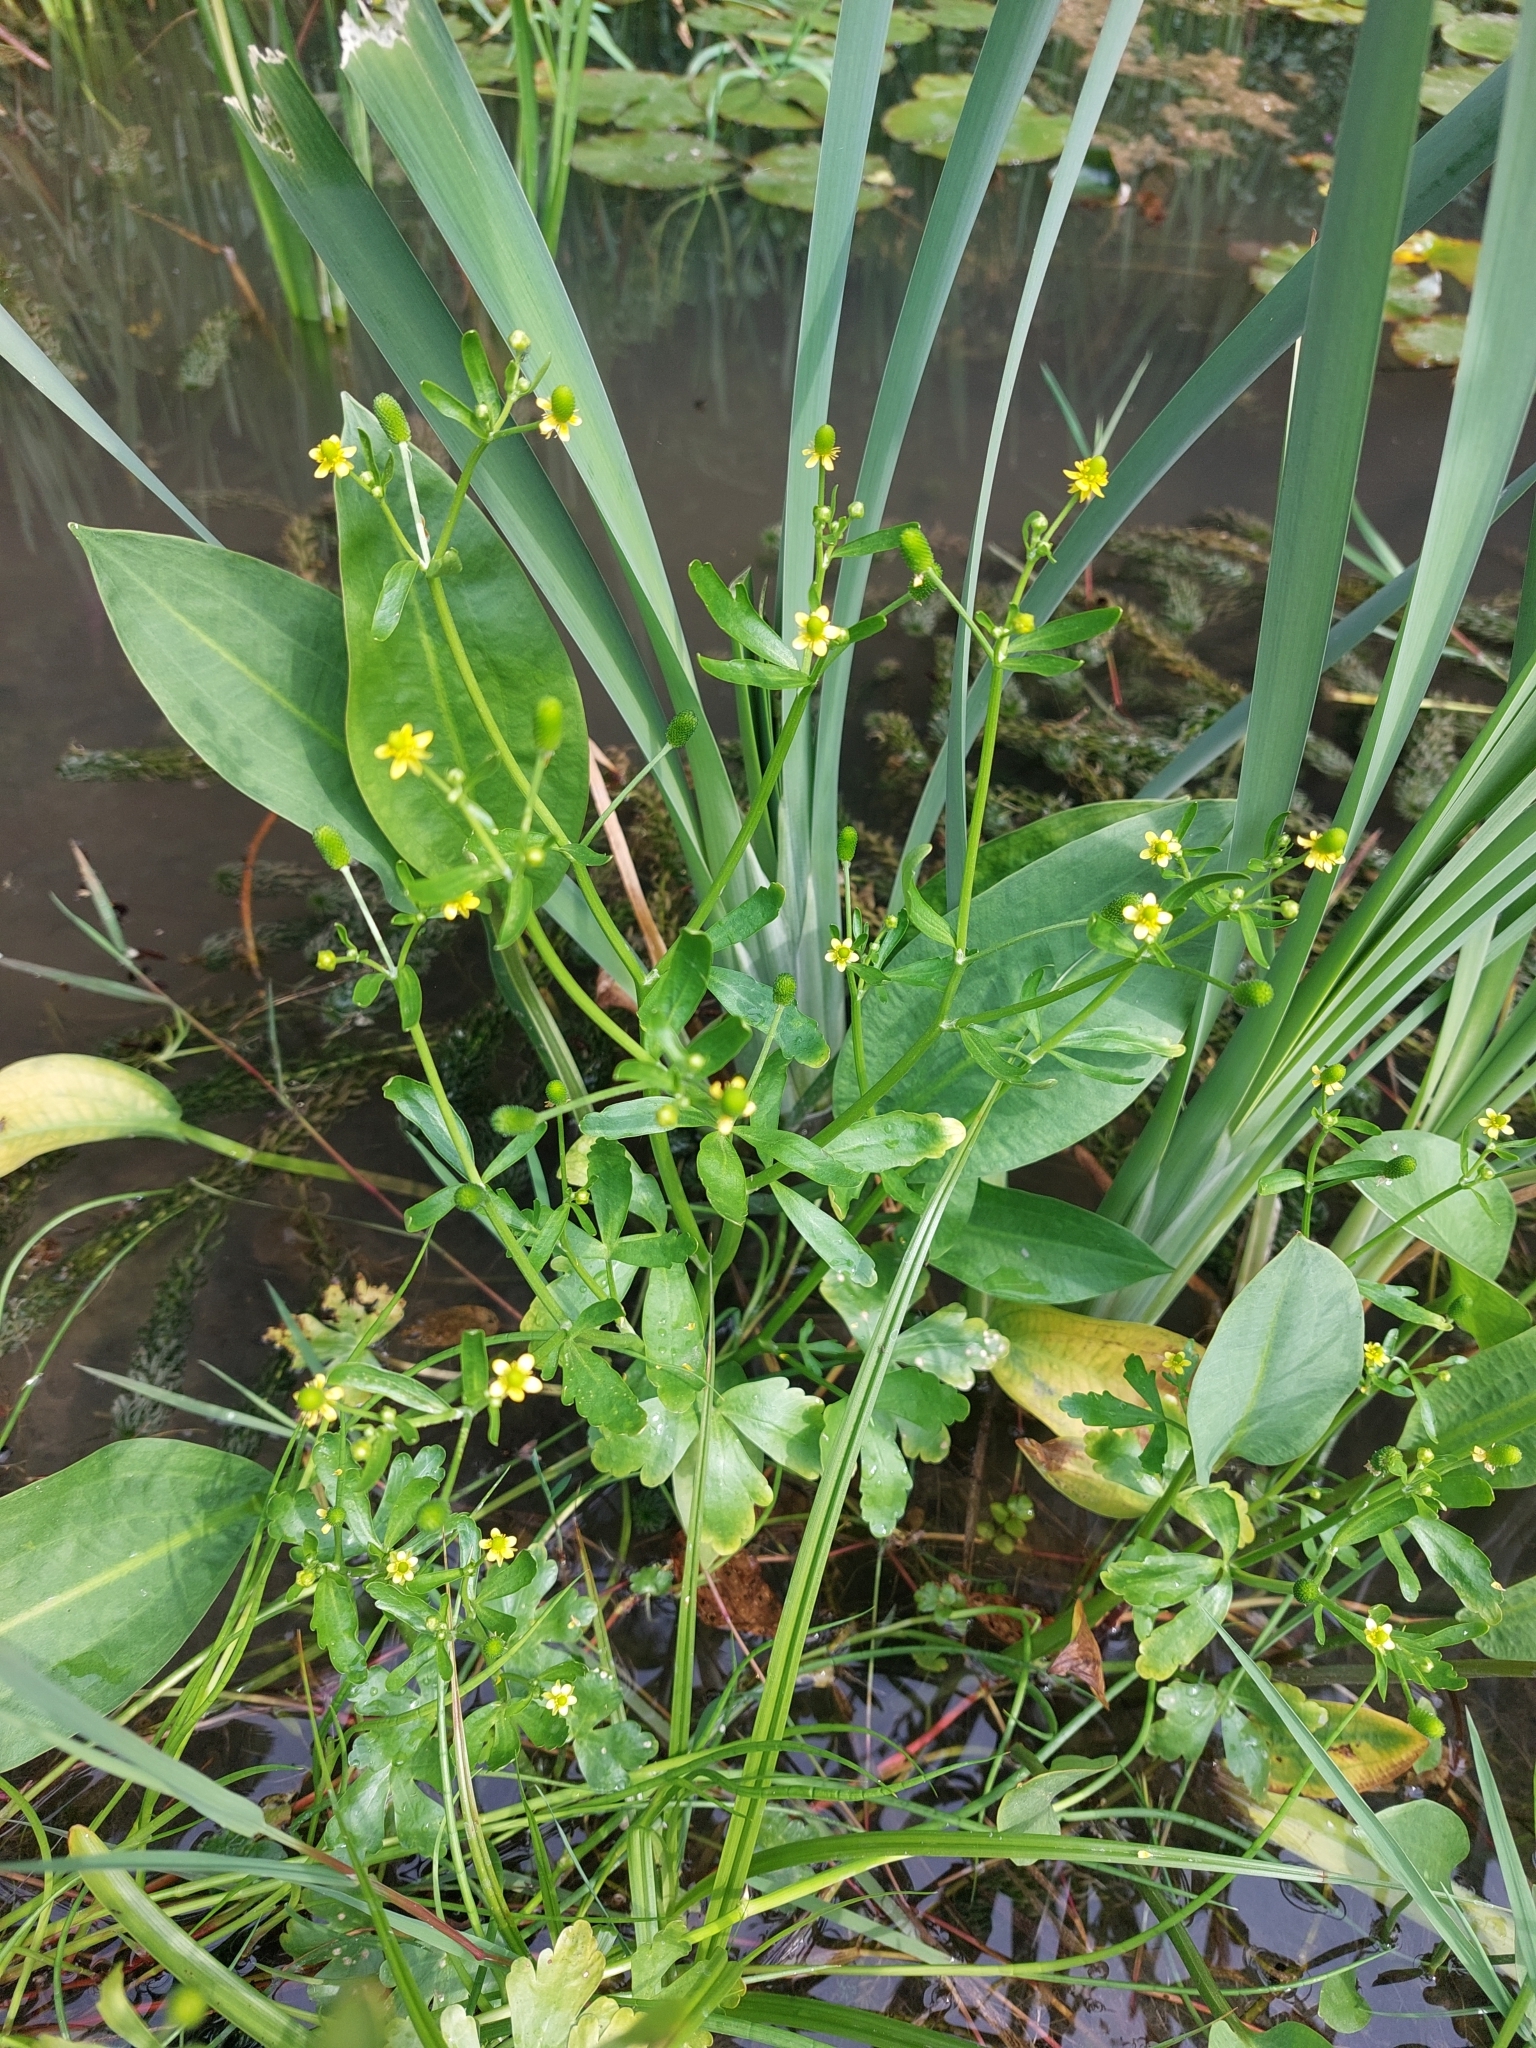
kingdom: Plantae
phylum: Tracheophyta
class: Magnoliopsida
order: Ranunculales
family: Ranunculaceae
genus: Ranunculus
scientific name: Ranunculus sceleratus
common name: Celery-leaved buttercup
